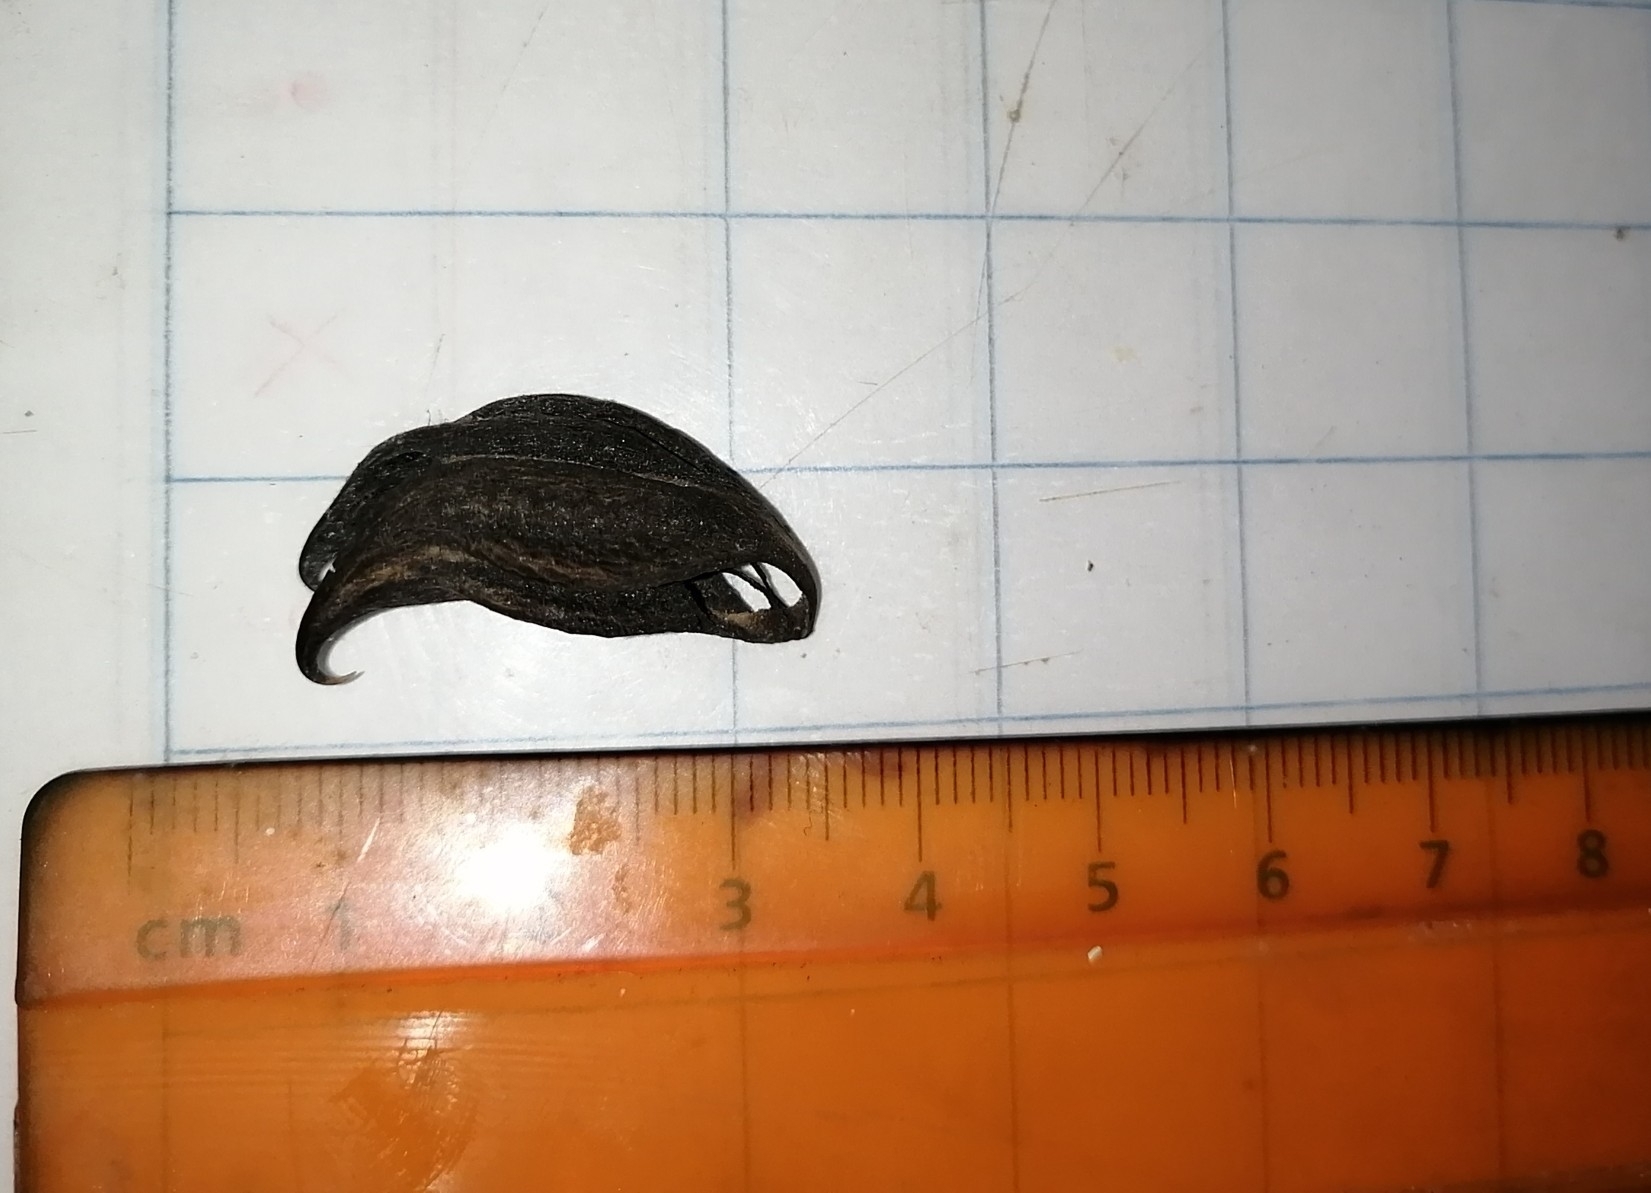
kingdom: Plantae
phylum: Tracheophyta
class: Magnoliopsida
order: Lamiales
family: Martyniaceae
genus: Martynia
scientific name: Martynia annua
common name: Tiger's-claw
